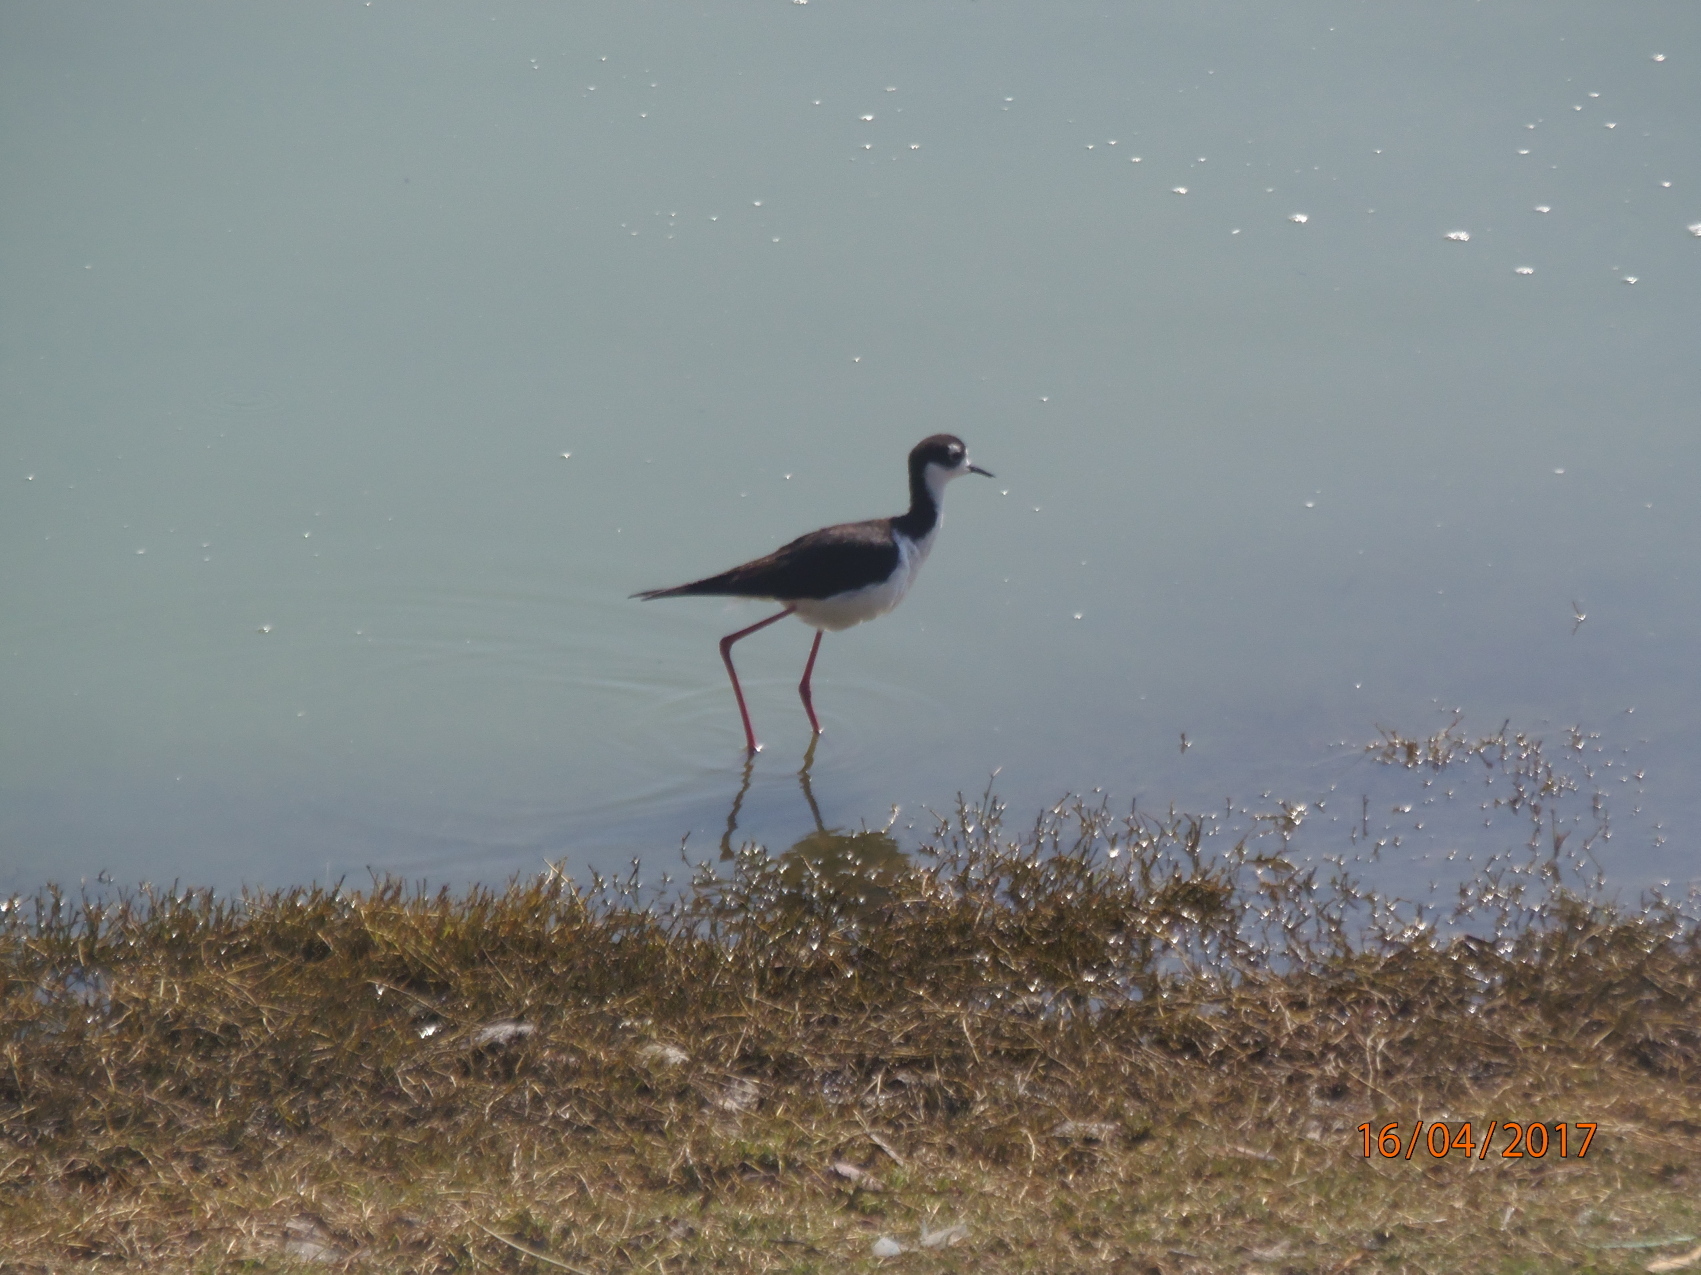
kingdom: Animalia
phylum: Chordata
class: Aves
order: Charadriiformes
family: Recurvirostridae
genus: Himantopus
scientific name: Himantopus mexicanus
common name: Black-necked stilt
